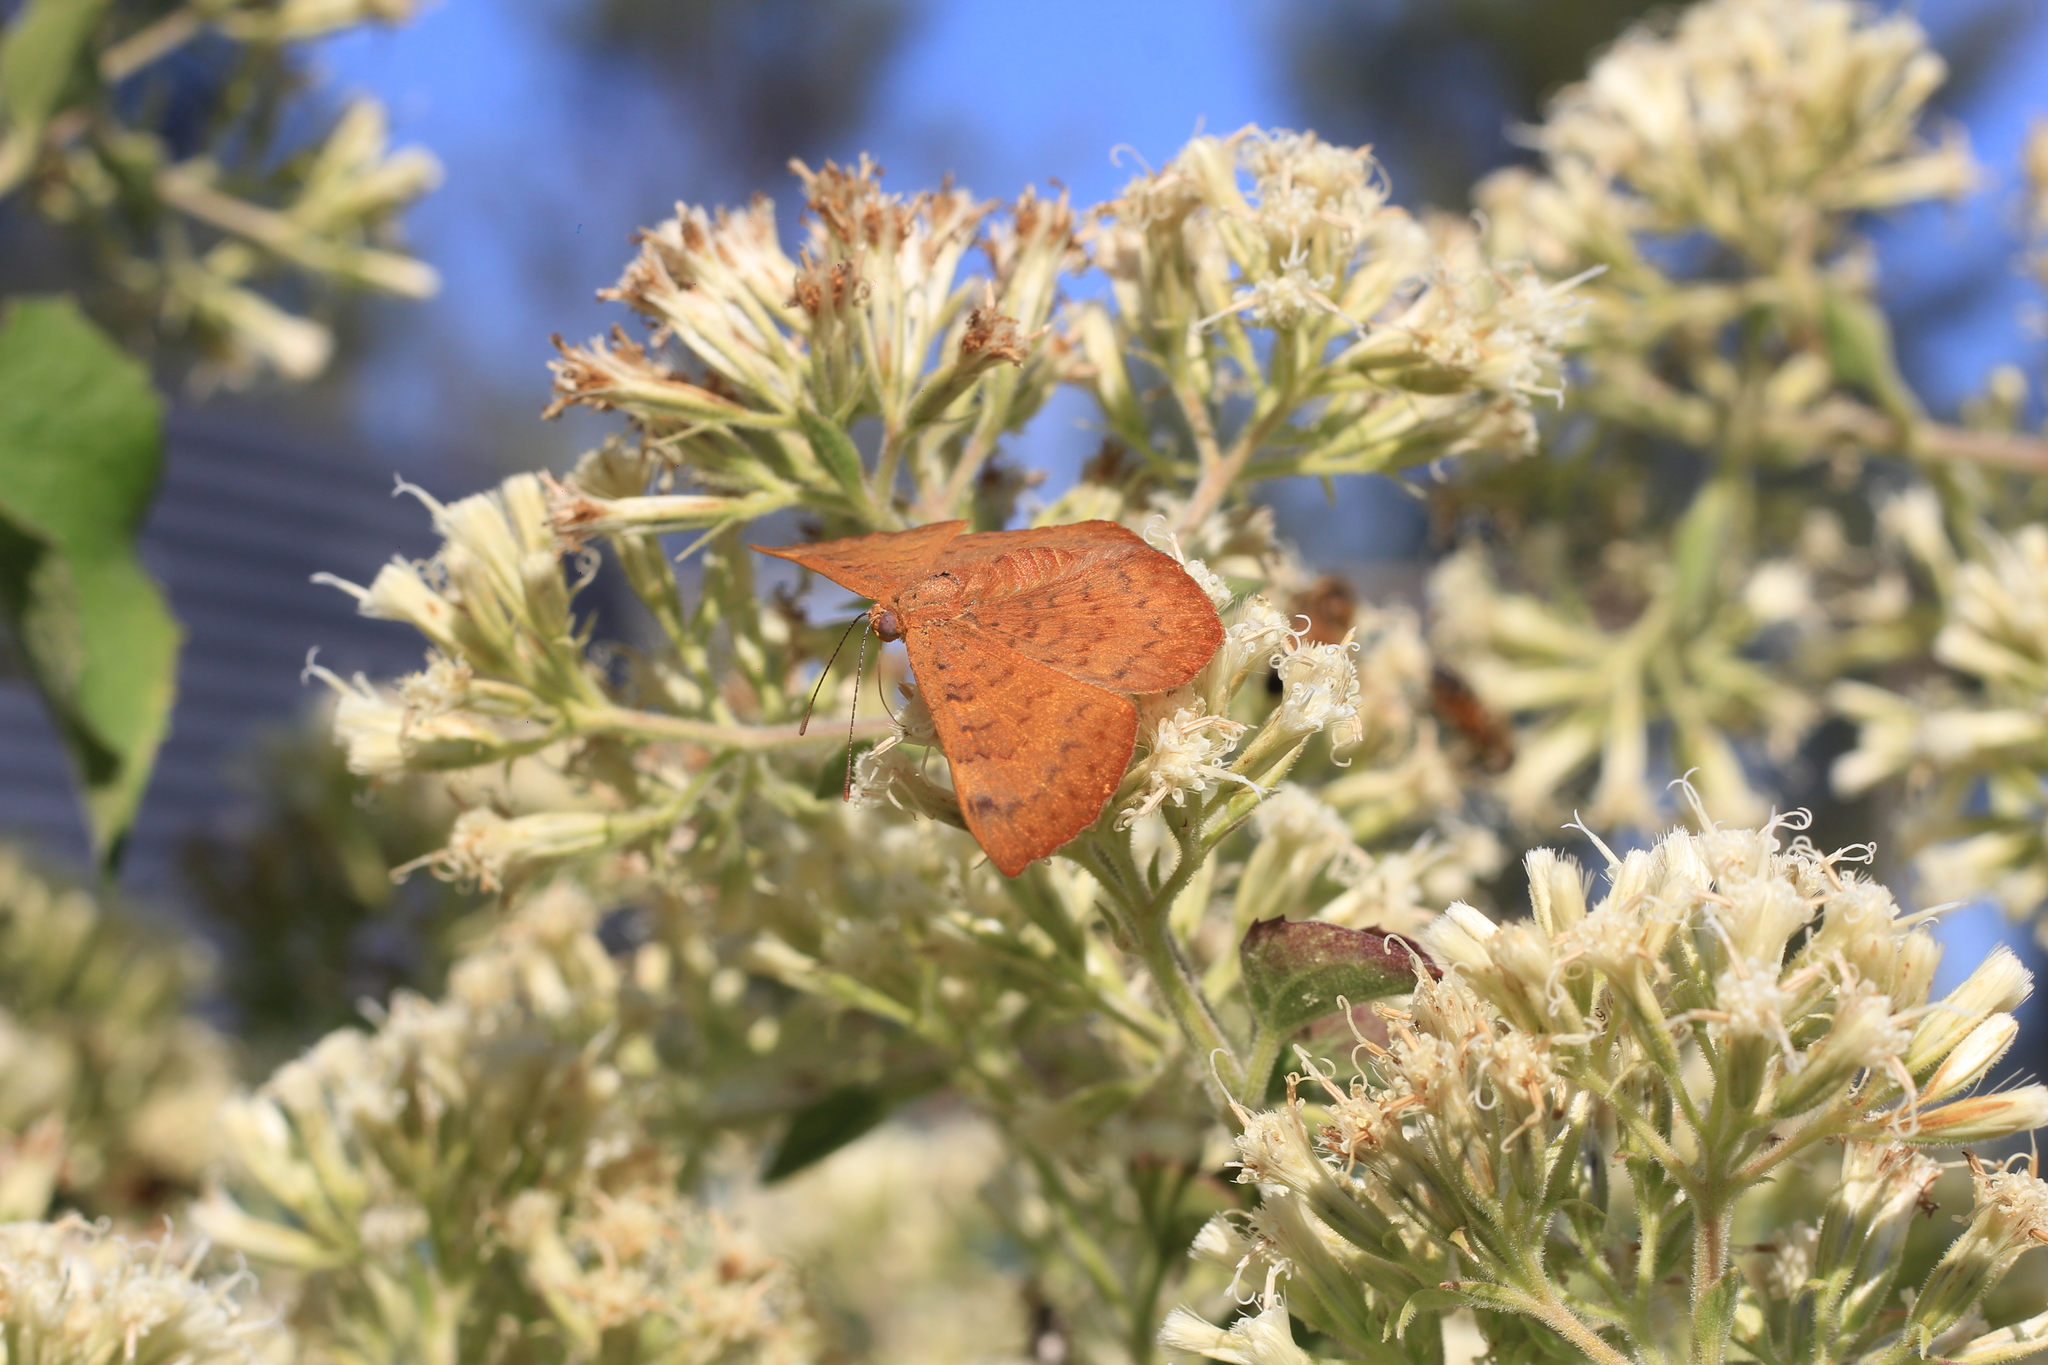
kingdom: Animalia
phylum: Arthropoda
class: Insecta
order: Lepidoptera
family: Lycaenidae
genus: Emesis
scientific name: Emesis russula
